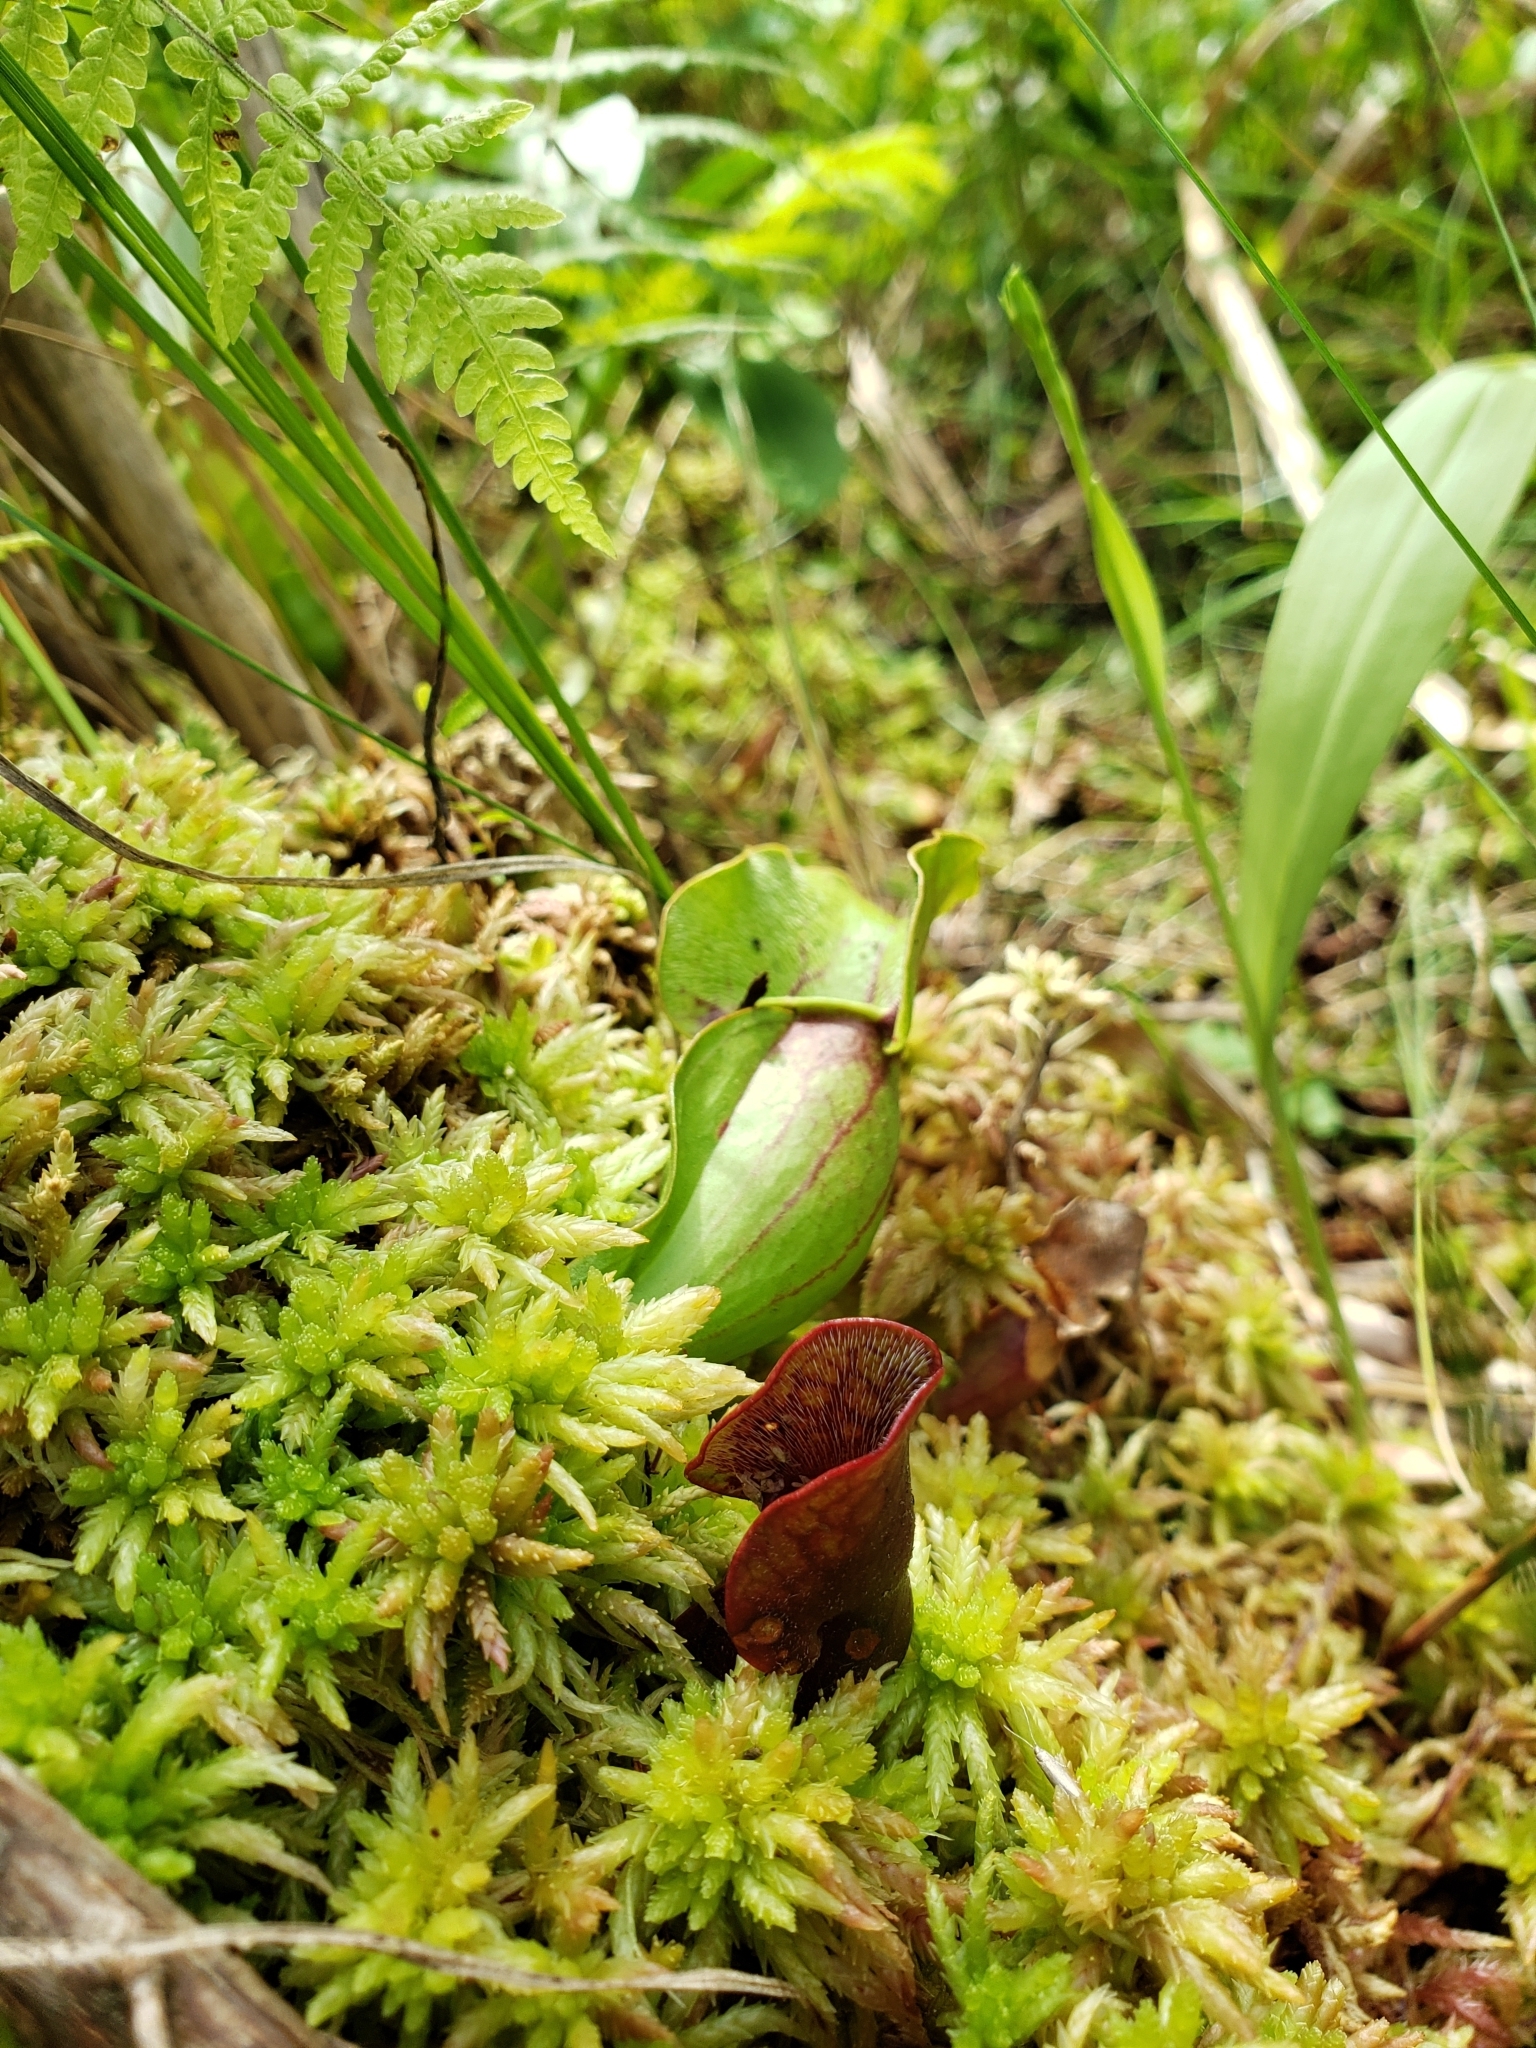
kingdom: Plantae
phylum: Tracheophyta
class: Magnoliopsida
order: Ericales
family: Sarraceniaceae
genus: Sarracenia
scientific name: Sarracenia purpurea
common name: Pitcherplant
